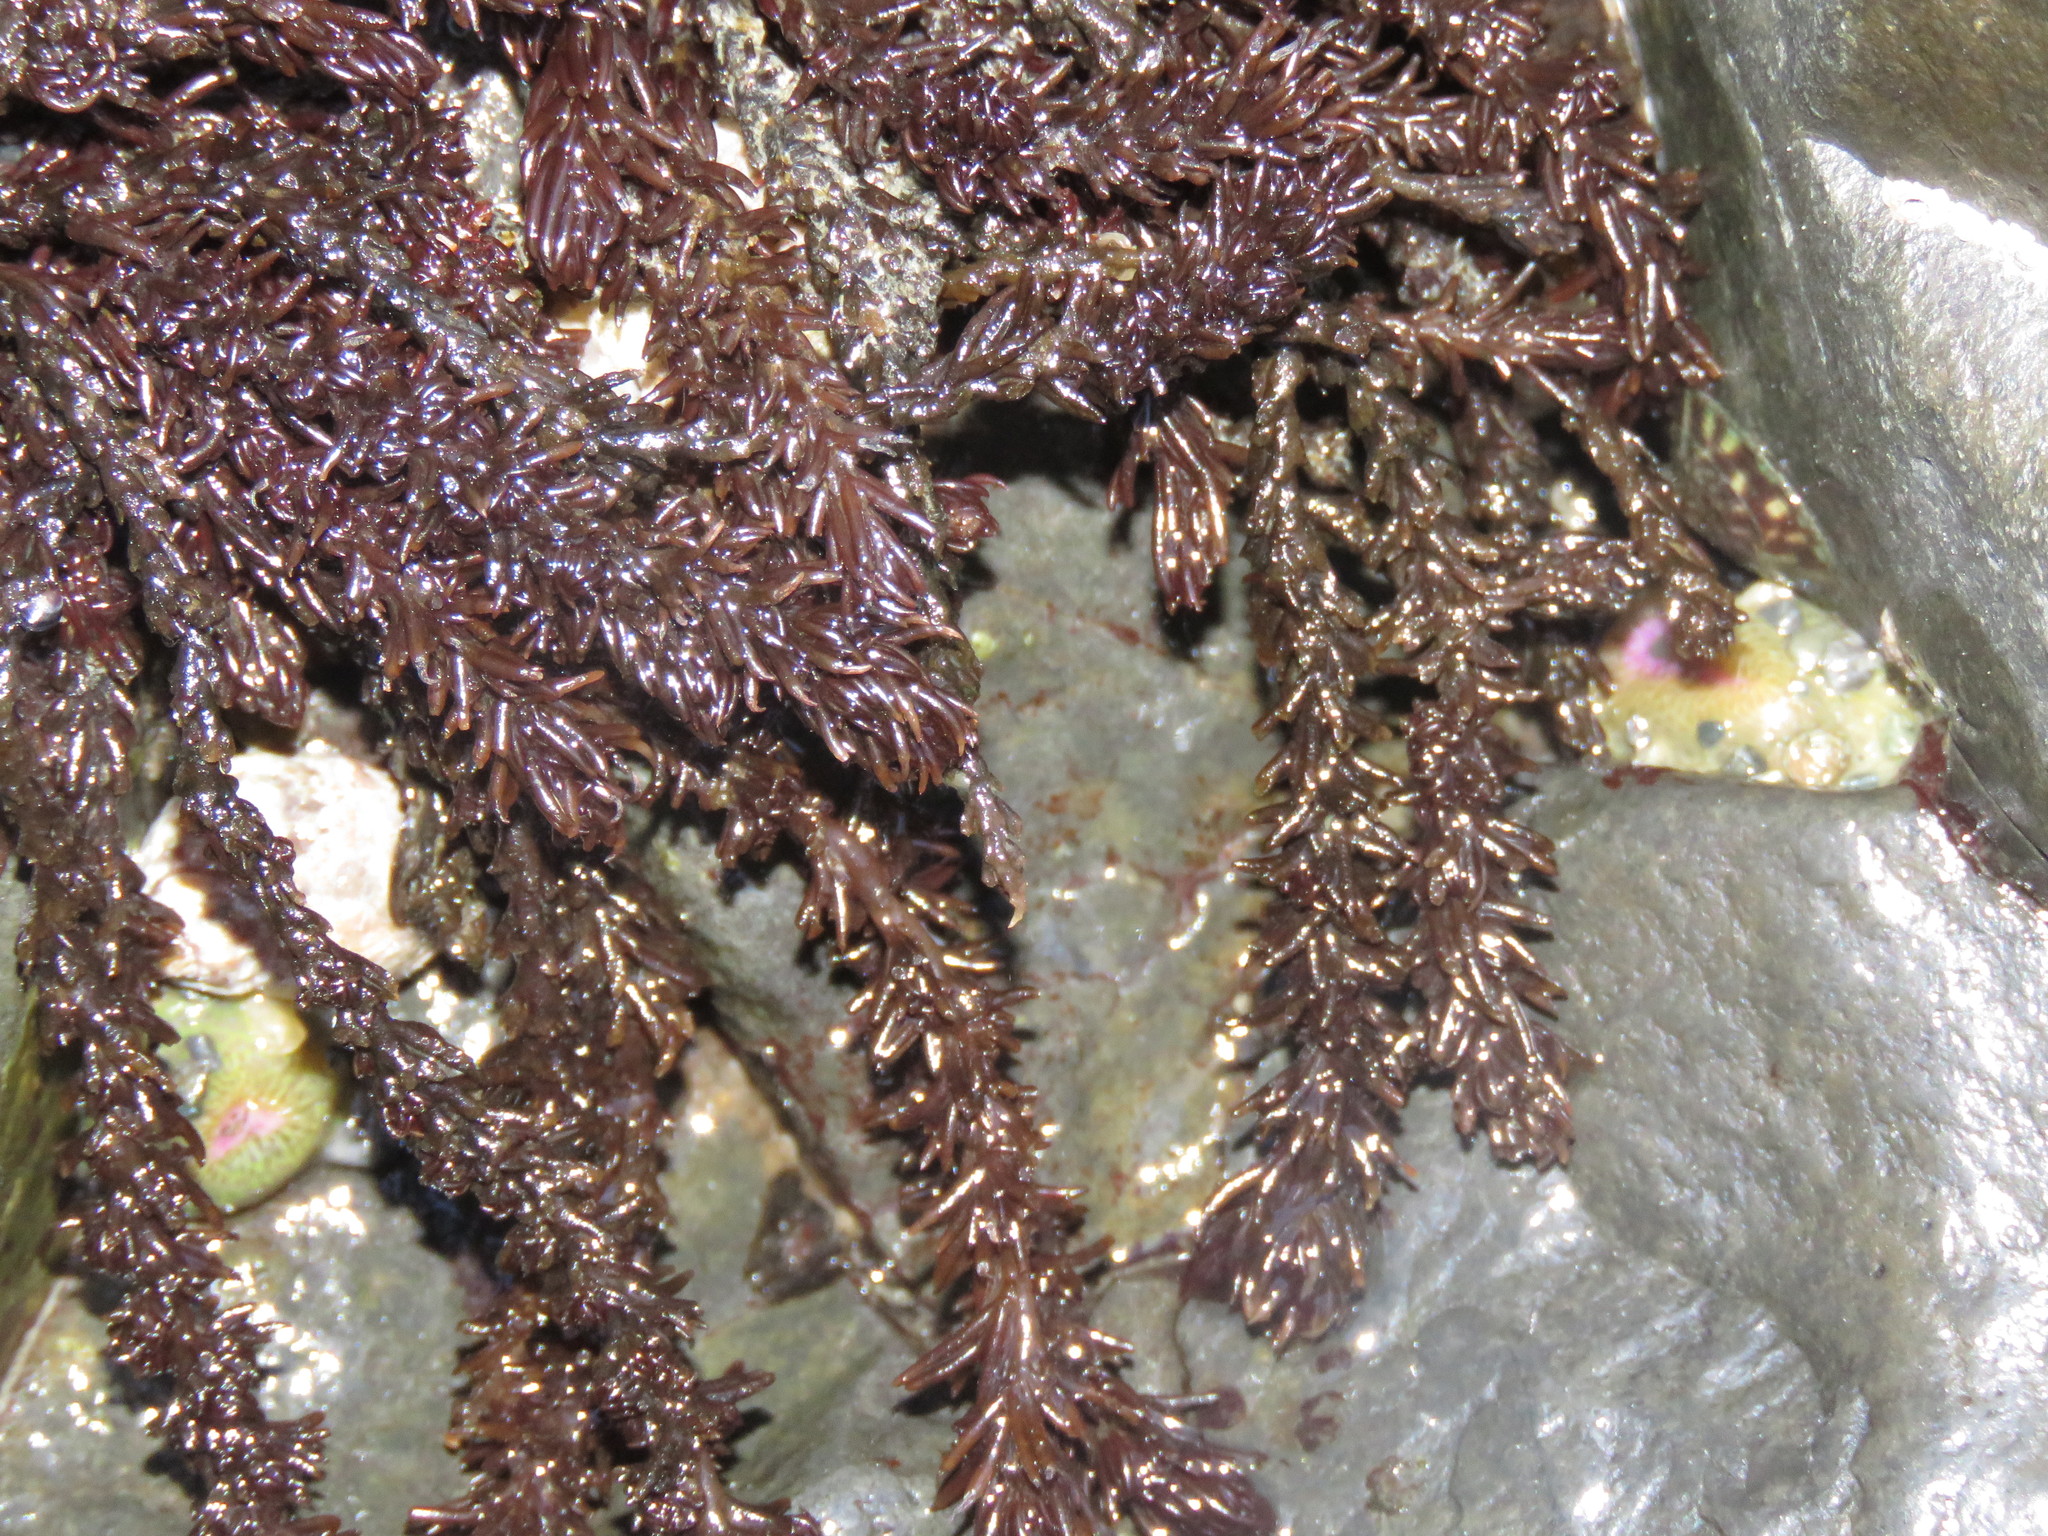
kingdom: Plantae
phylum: Rhodophyta
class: Florideophyceae
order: Ceramiales
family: Rhodomelaceae
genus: Neorhodomela
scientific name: Neorhodomela larix
